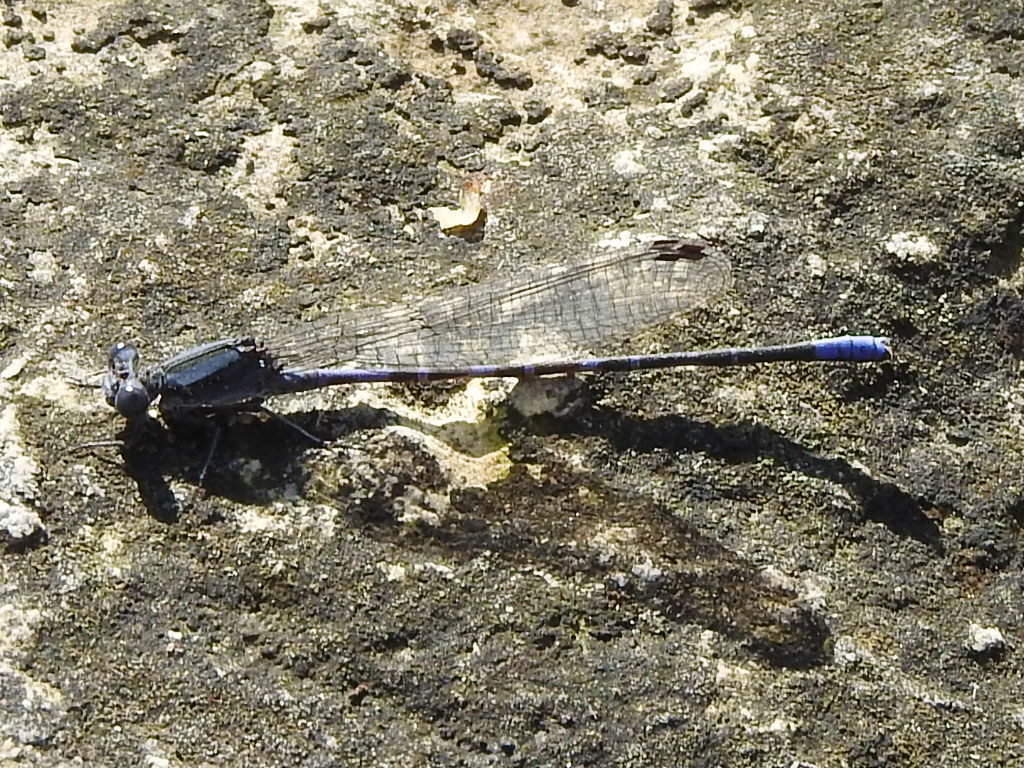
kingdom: Animalia
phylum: Arthropoda
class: Insecta
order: Odonata
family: Coenagrionidae
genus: Argia
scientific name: Argia immunda
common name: Kiowa dancer
